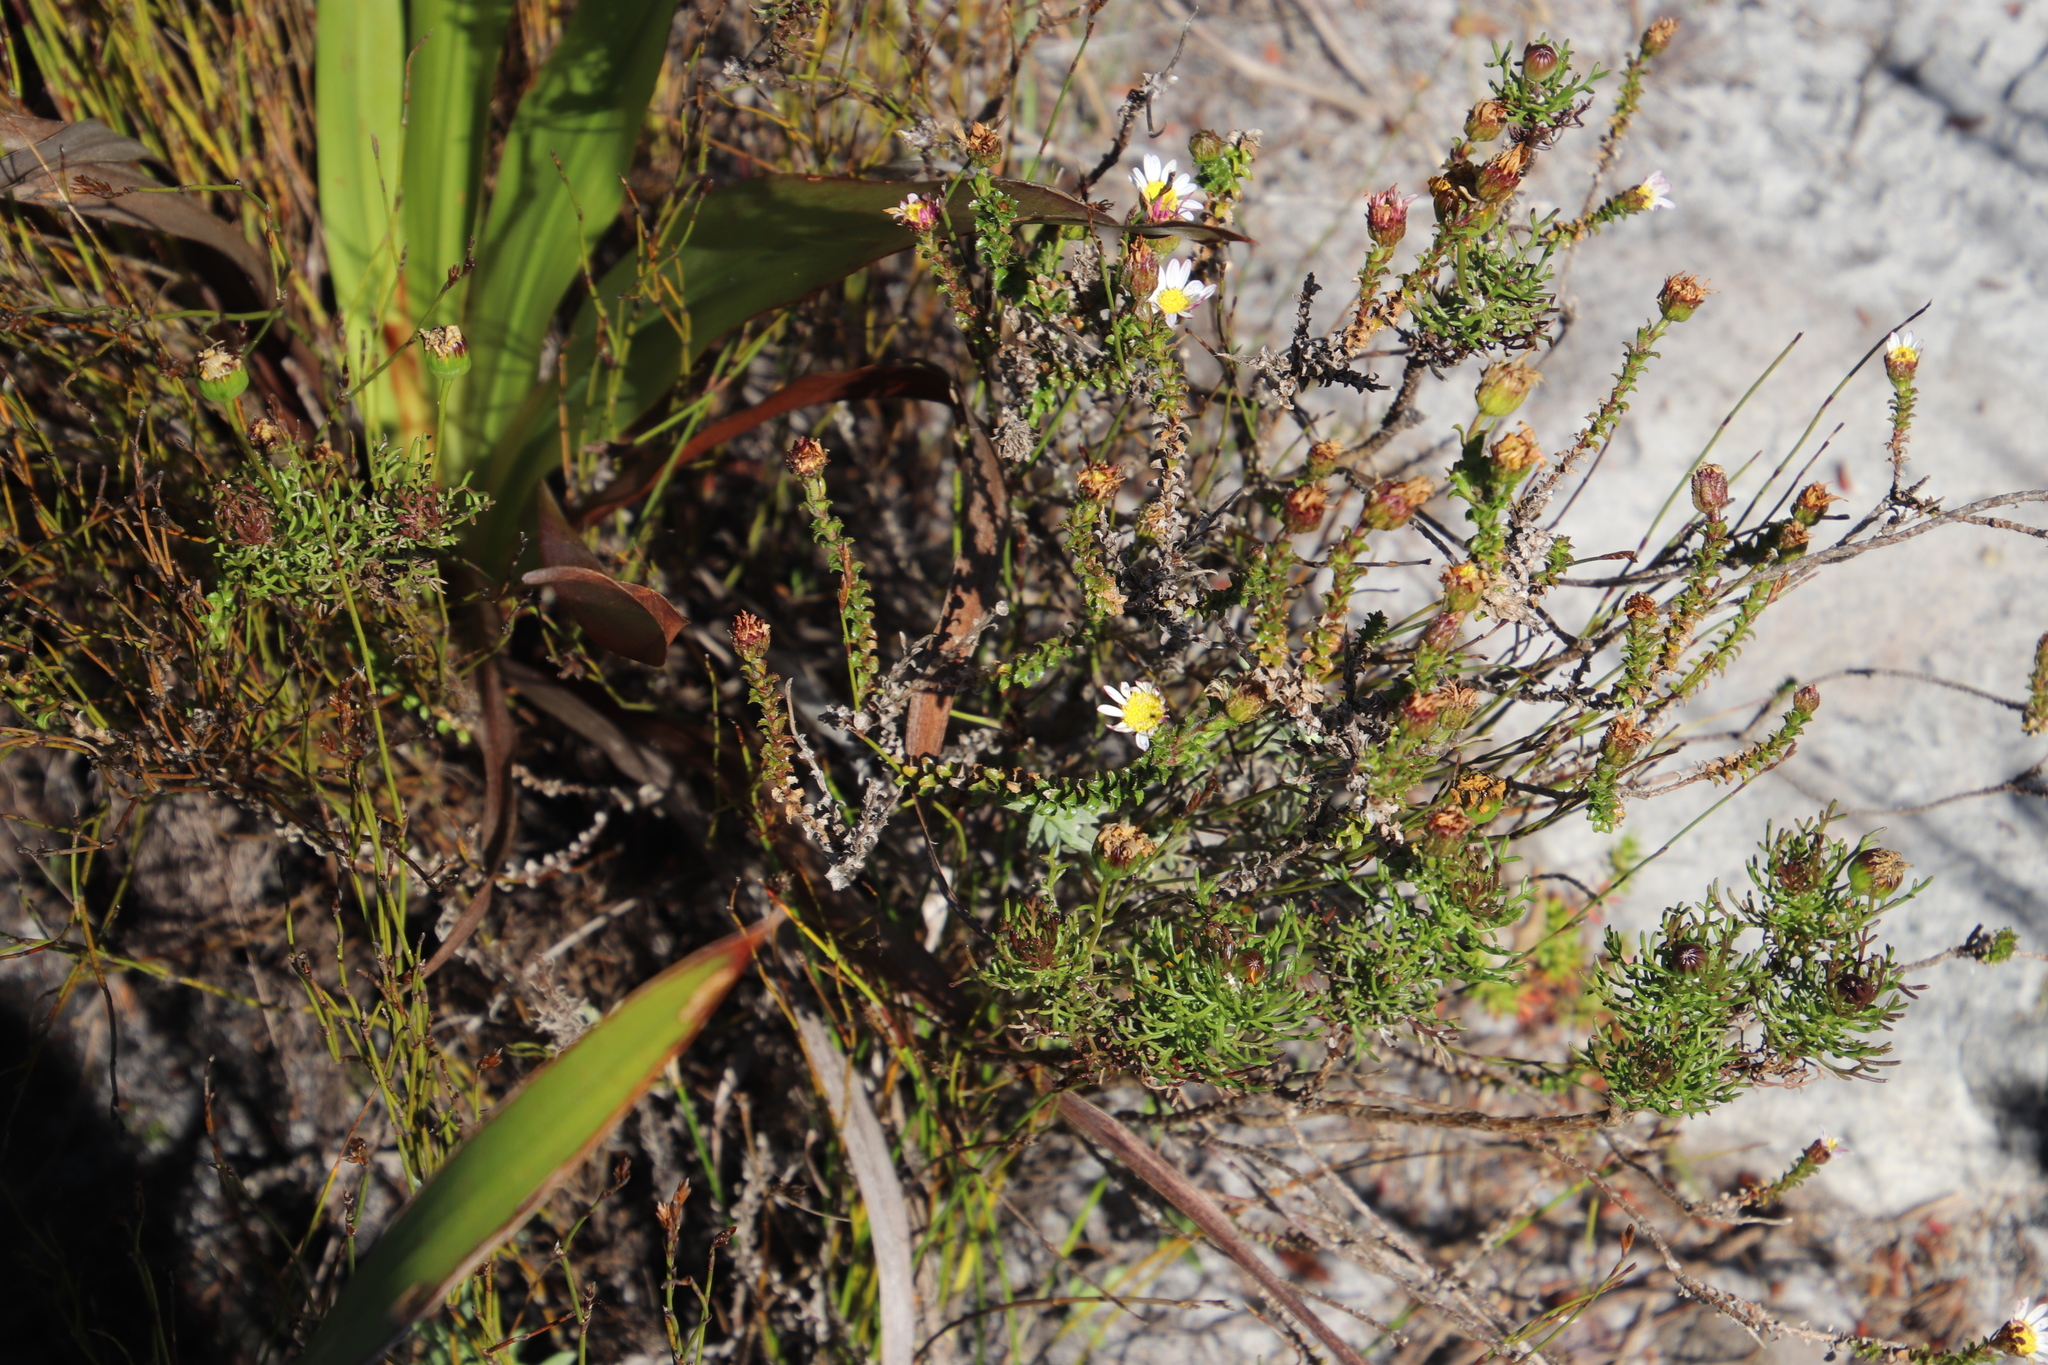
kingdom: Plantae
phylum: Tracheophyta
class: Magnoliopsida
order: Asterales
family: Asteraceae
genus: Polyarrhena
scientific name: Polyarrhena reflexa
